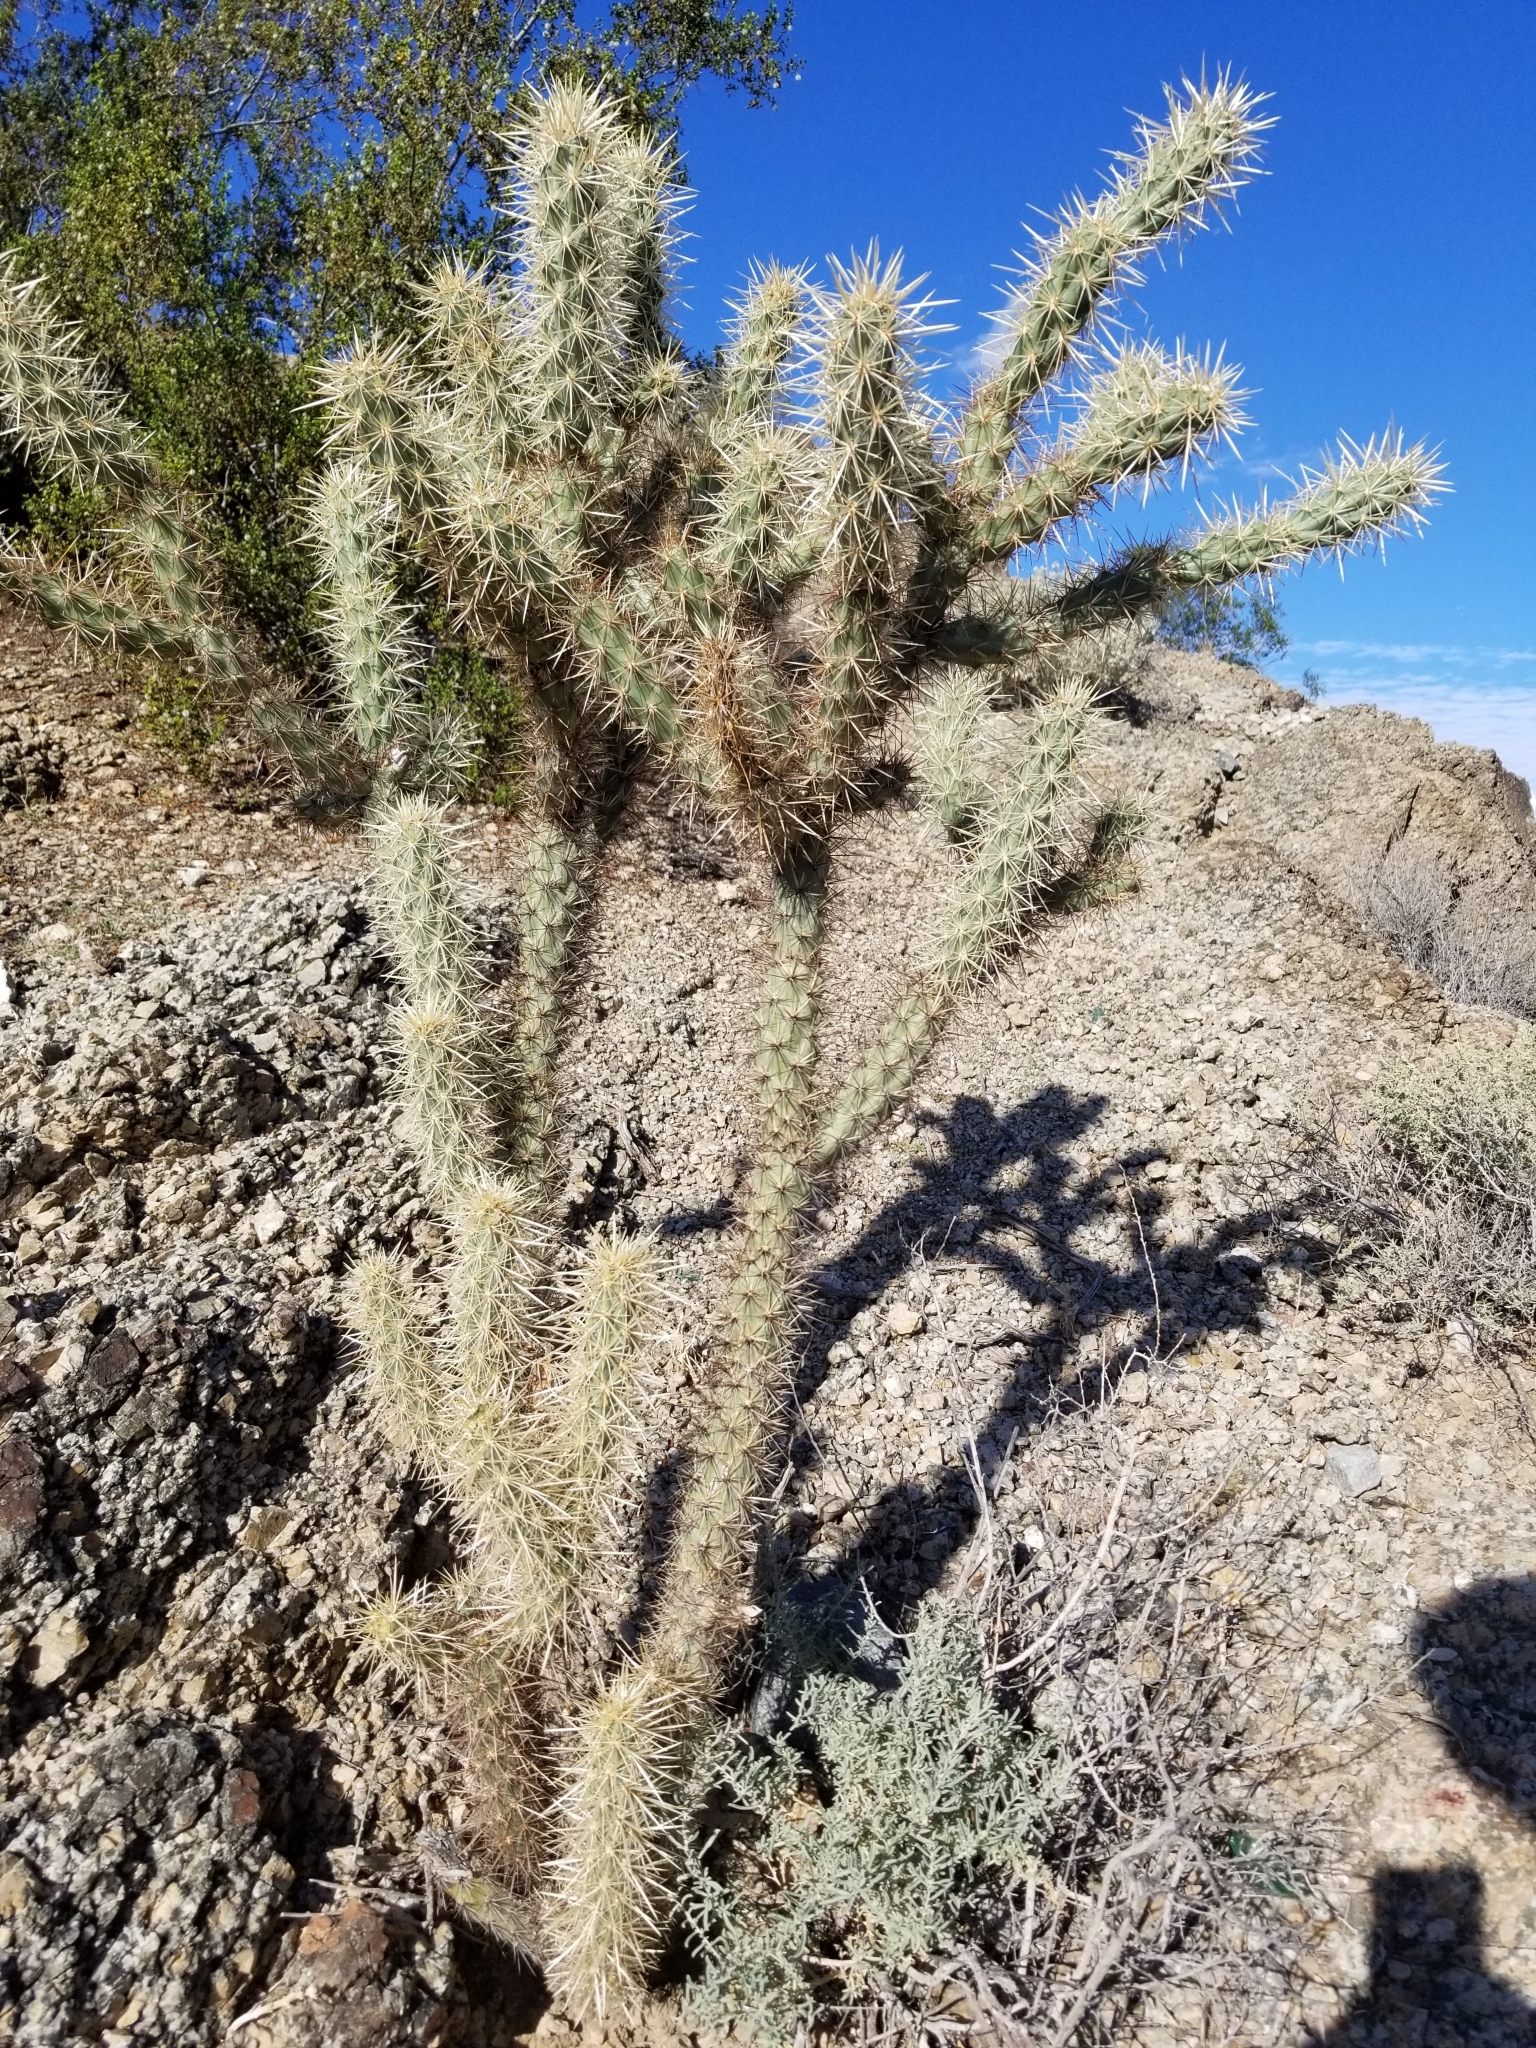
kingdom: Plantae
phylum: Tracheophyta
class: Magnoliopsida
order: Caryophyllales
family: Cactaceae
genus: Cylindropuntia
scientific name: Cylindropuntia acanthocarpa
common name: Buckhorn cholla
